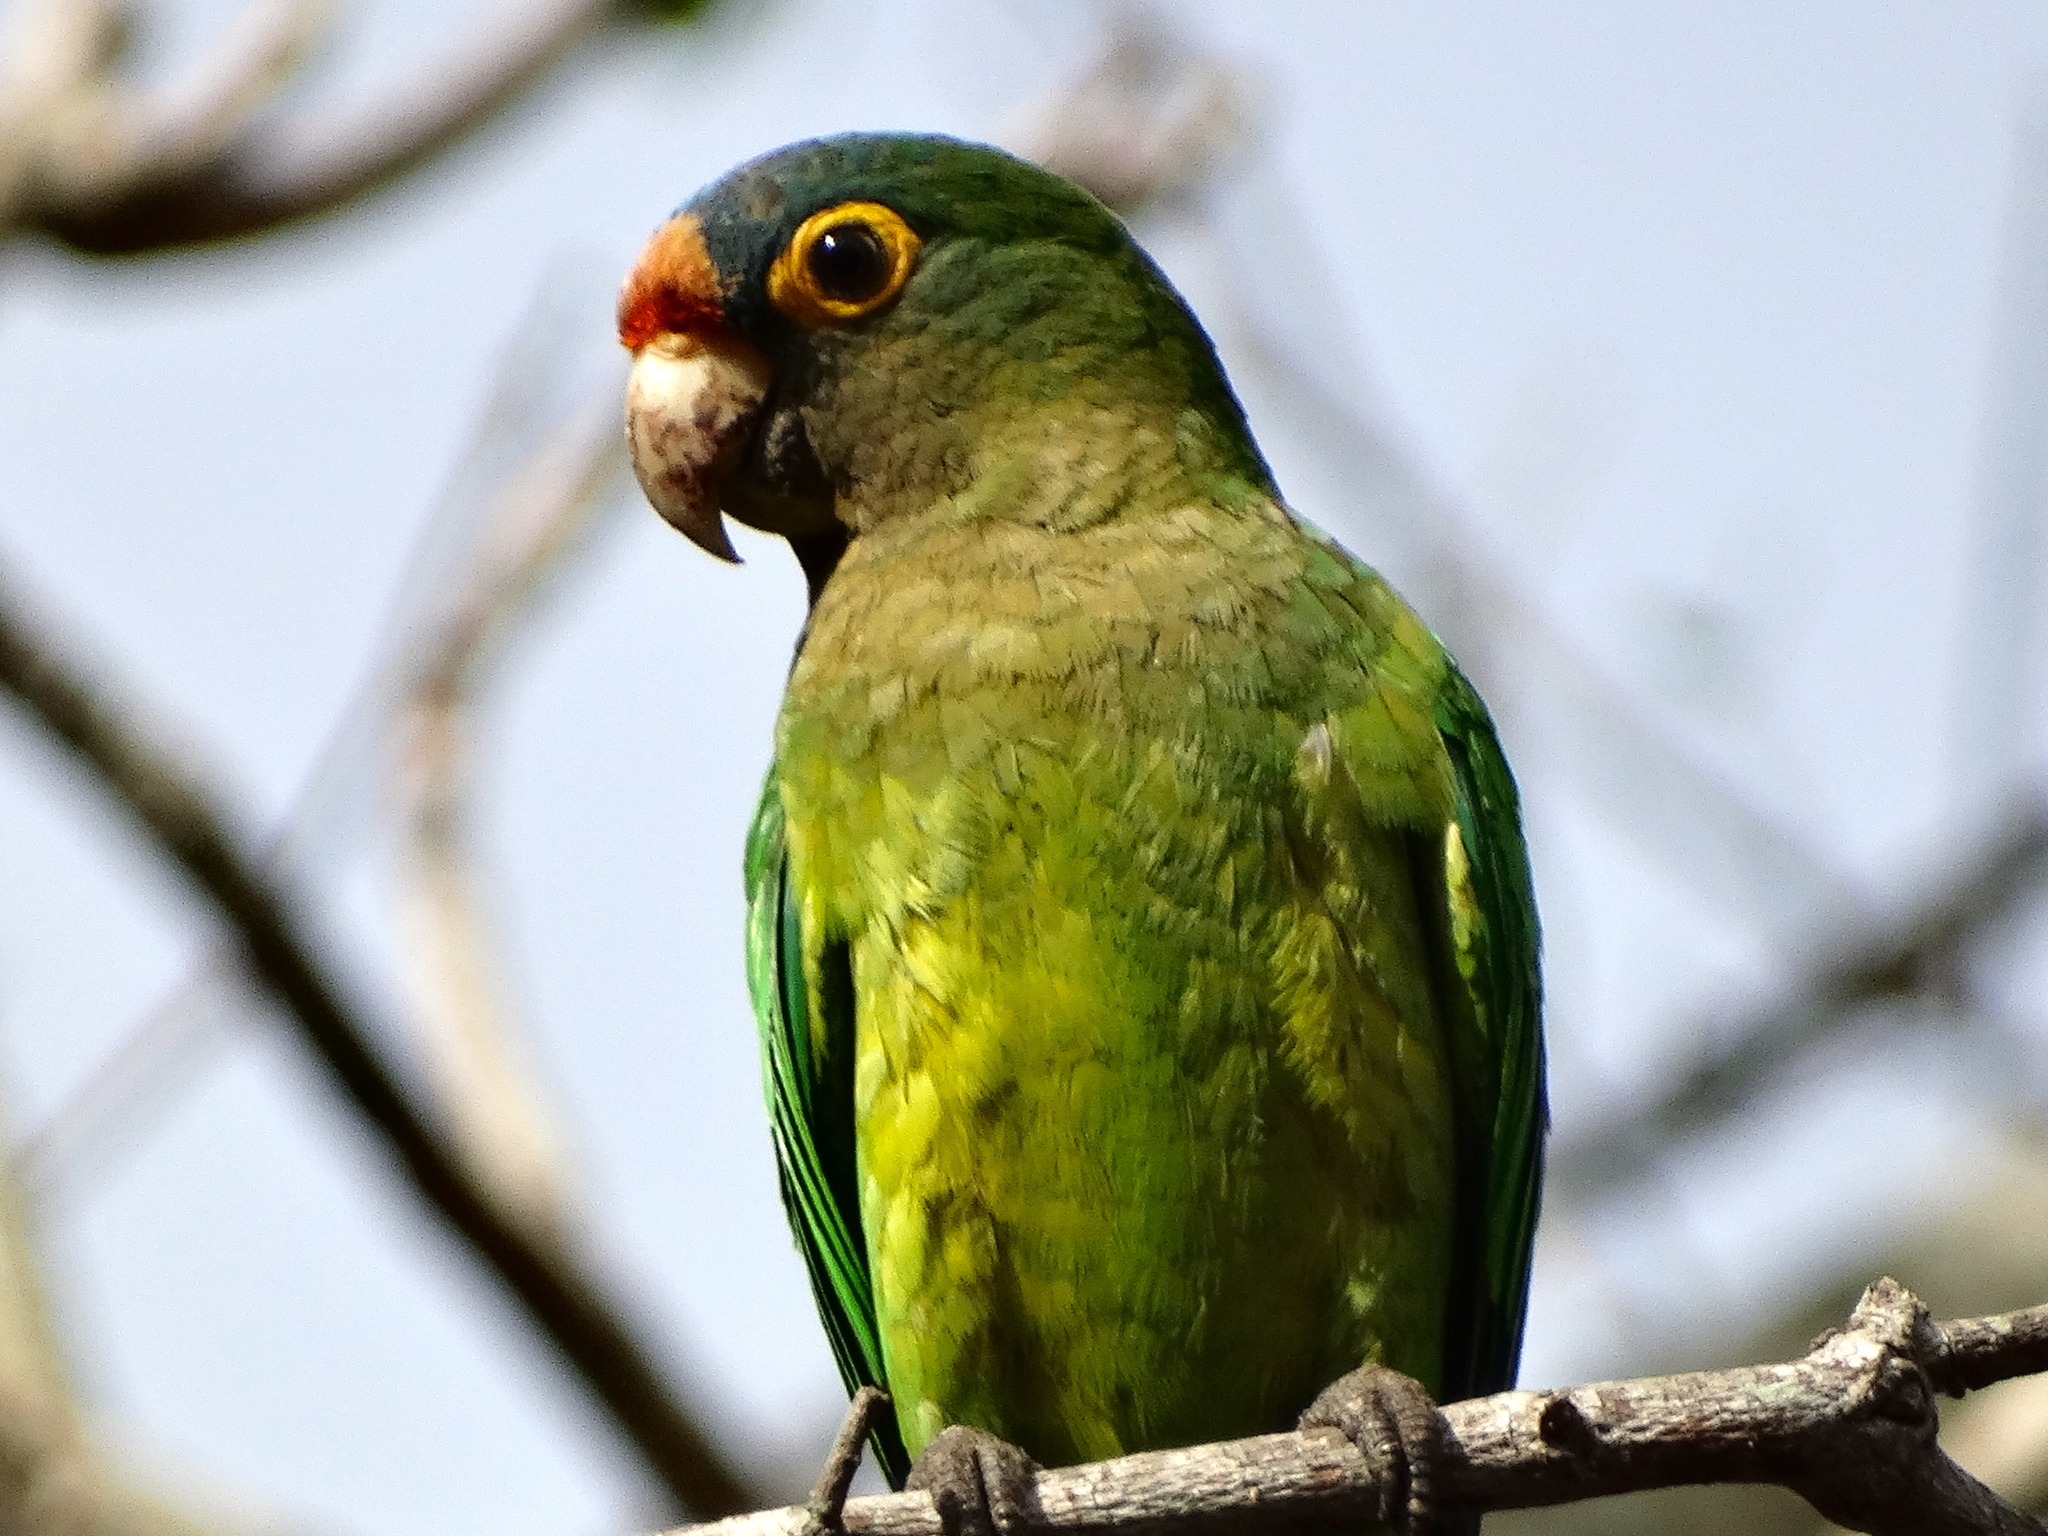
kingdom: Animalia
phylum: Chordata
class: Aves
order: Psittaciformes
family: Psittacidae
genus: Aratinga
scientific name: Aratinga canicularis
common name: Orange-fronted parakeet
